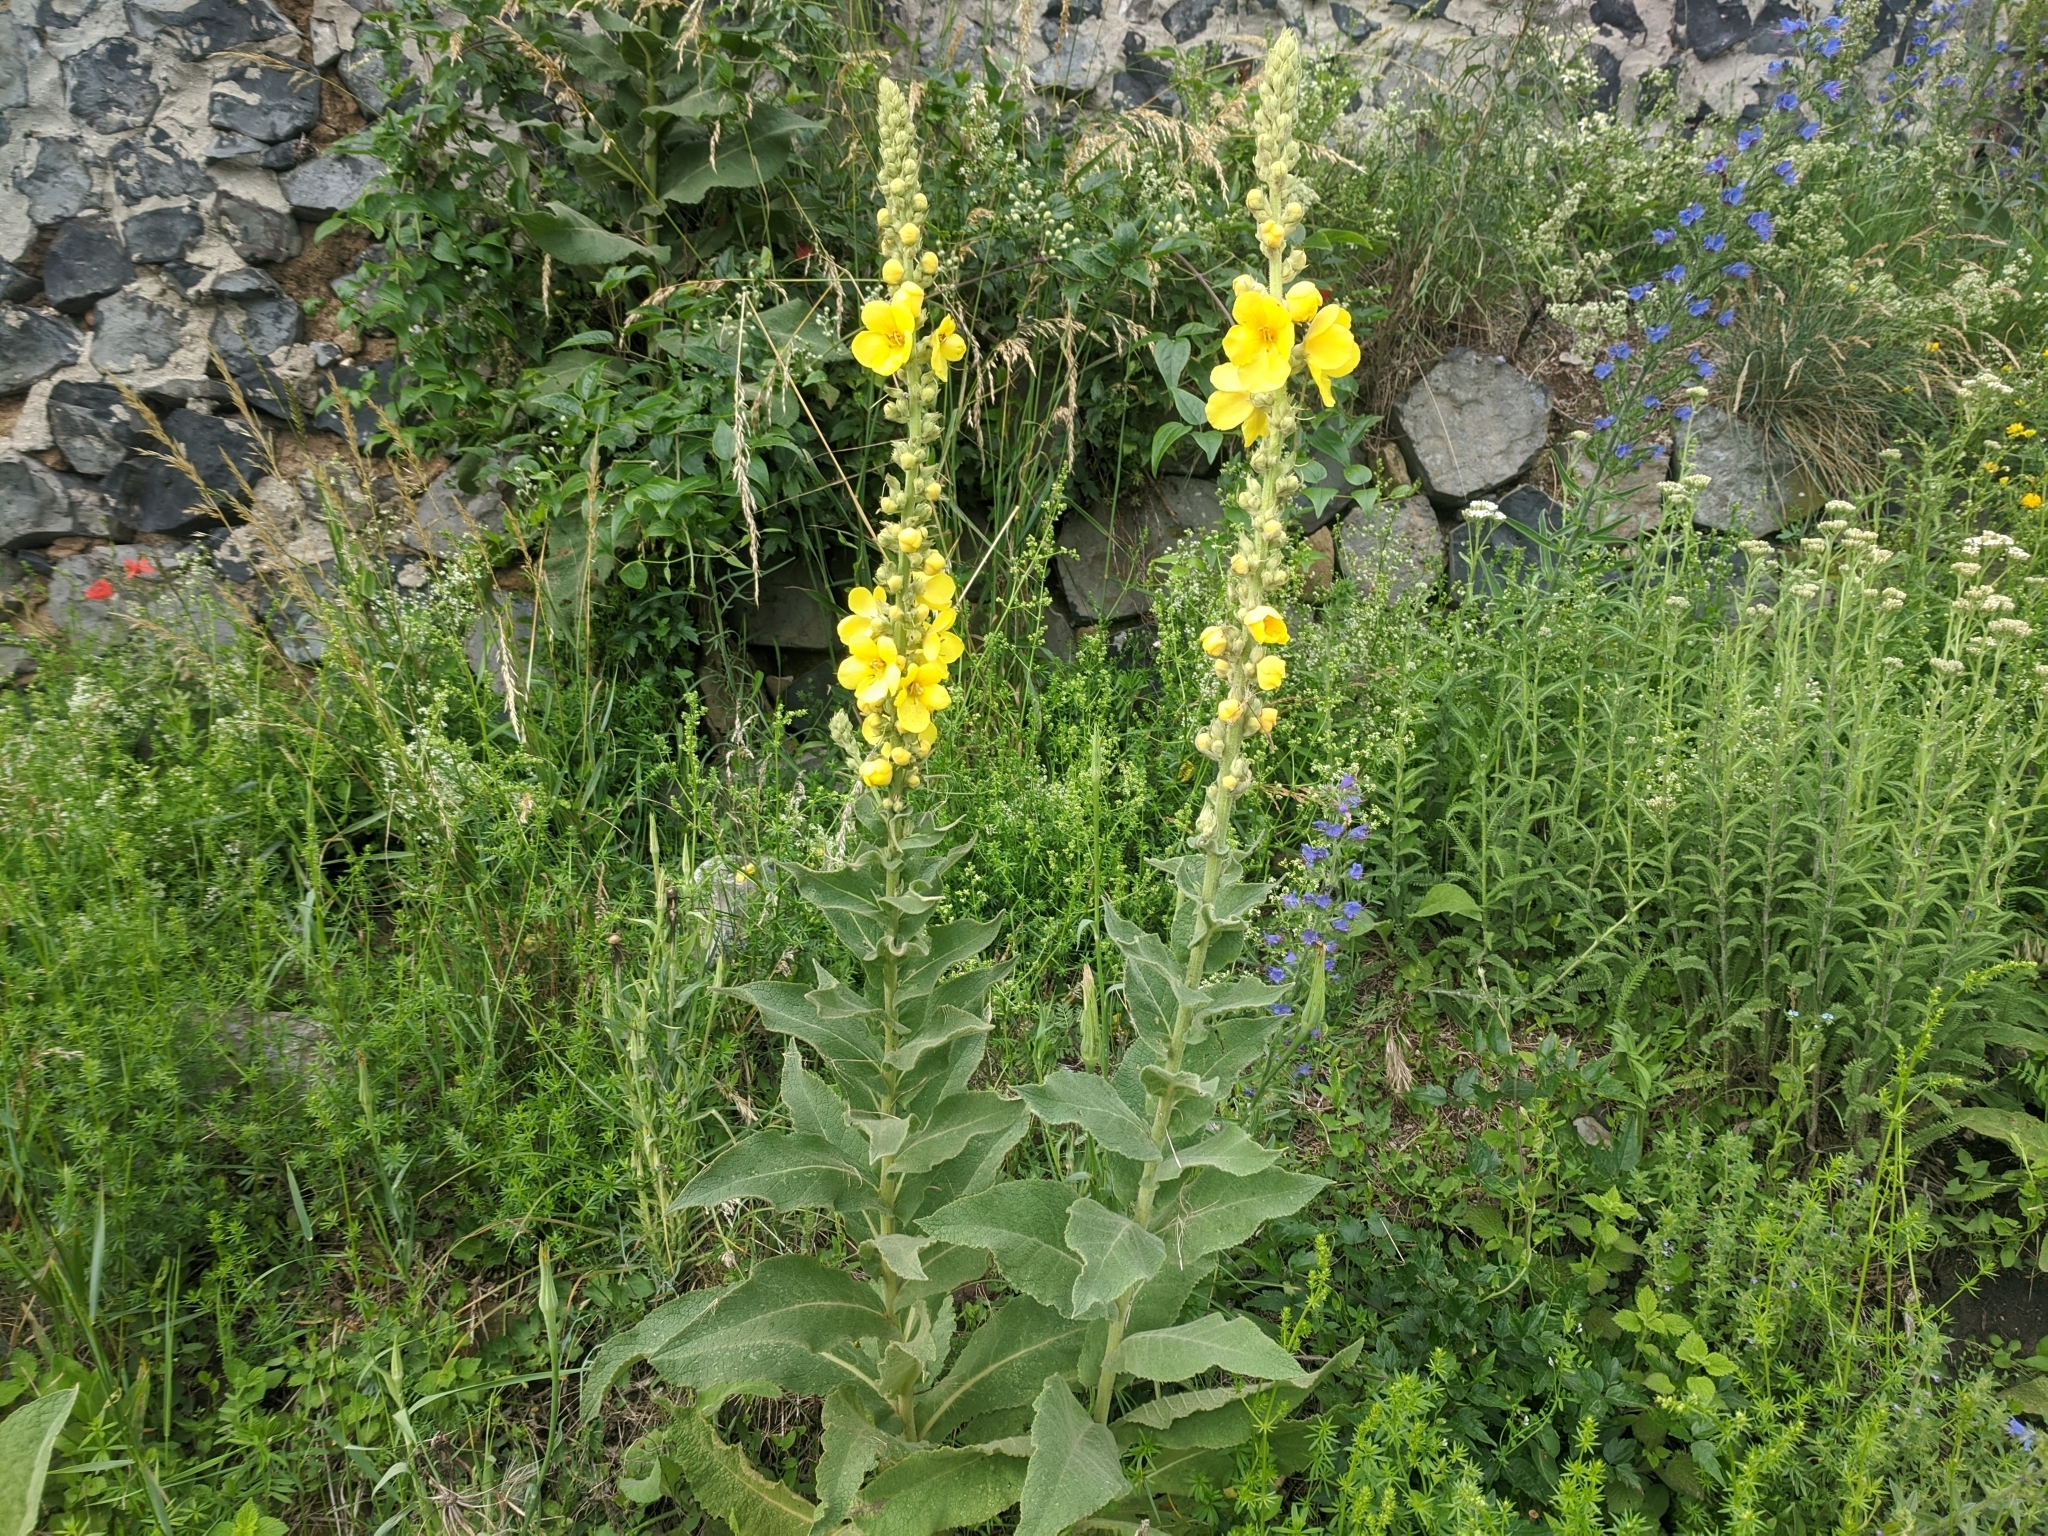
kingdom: Plantae
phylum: Tracheophyta
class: Magnoliopsida
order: Lamiales
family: Scrophulariaceae
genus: Verbascum
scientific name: Verbascum phlomoides
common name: Orange mullein
